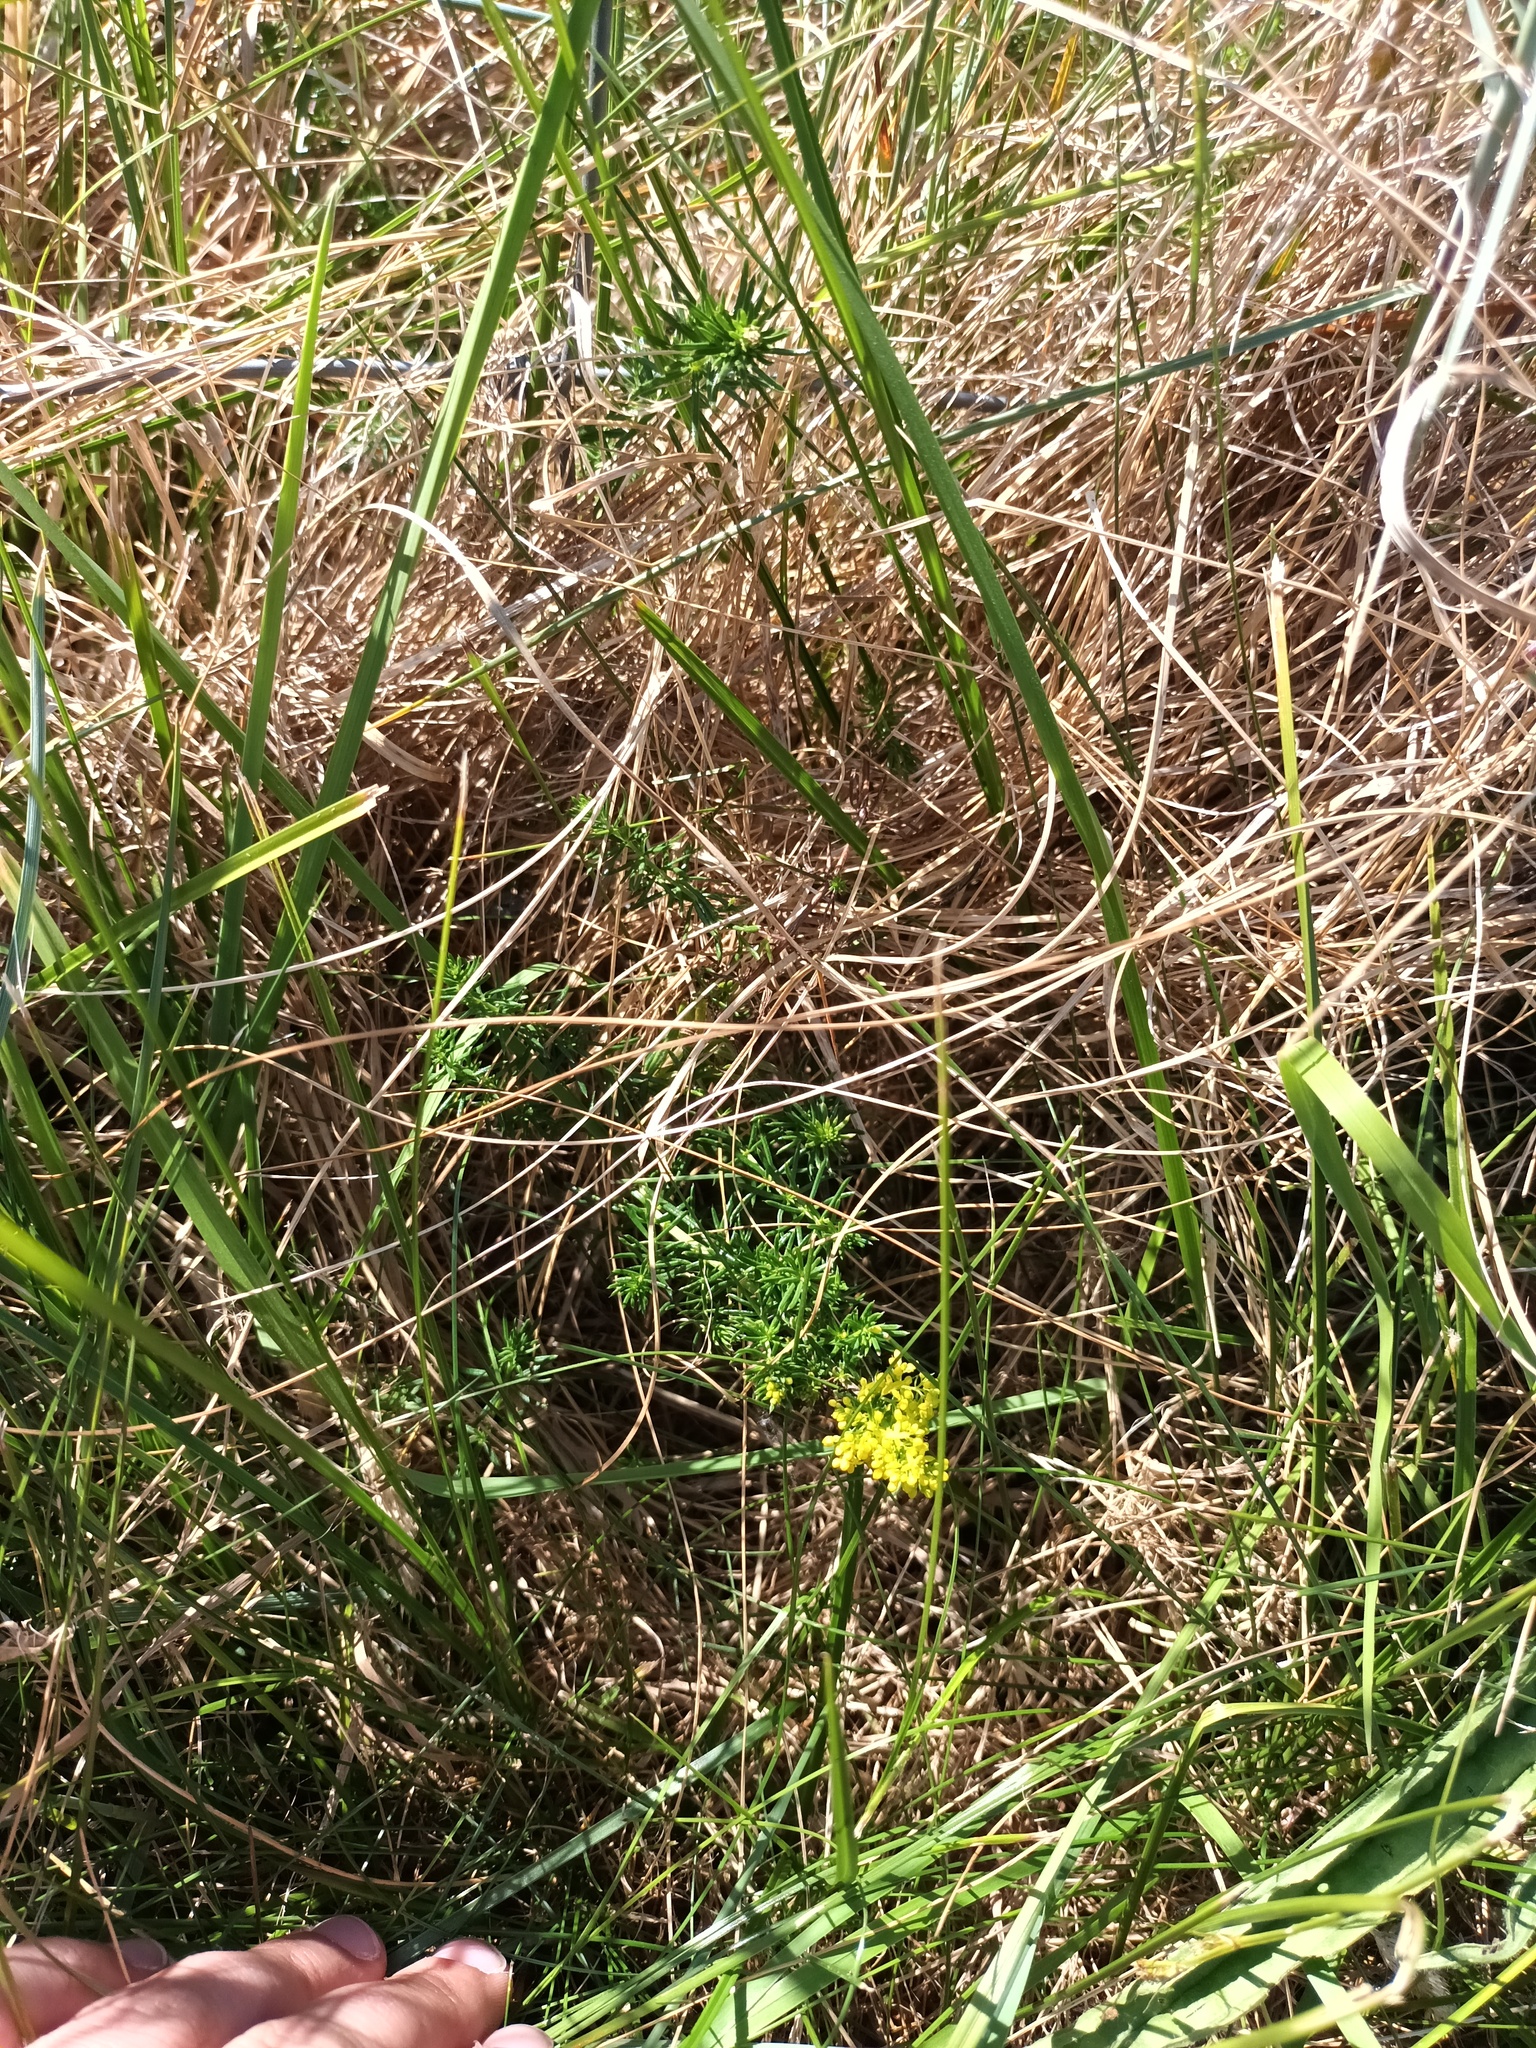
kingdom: Plantae
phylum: Tracheophyta
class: Magnoliopsida
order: Gentianales
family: Rubiaceae
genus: Galium
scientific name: Galium verum
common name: Lady's bedstraw
